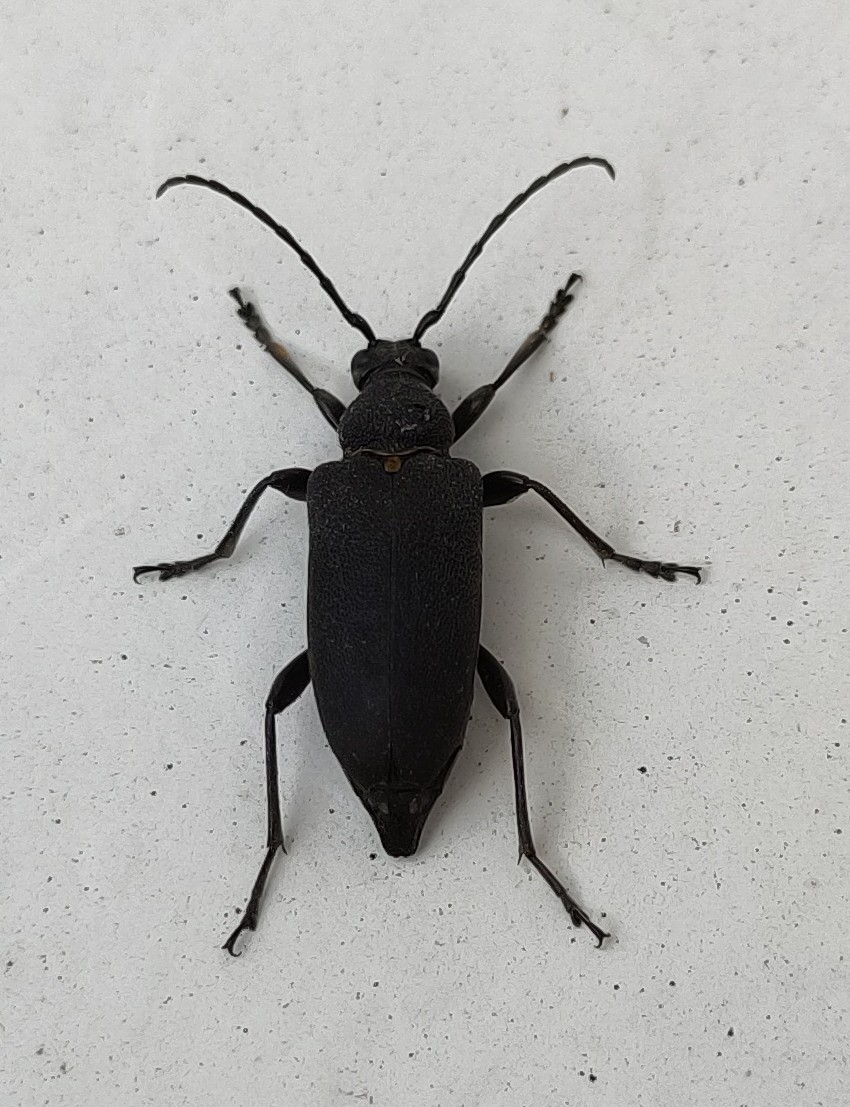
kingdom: Animalia
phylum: Arthropoda
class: Insecta
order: Coleoptera
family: Cerambycidae
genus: Stictoleptura
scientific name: Stictoleptura scutellata
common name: Large black longhorn beetle
